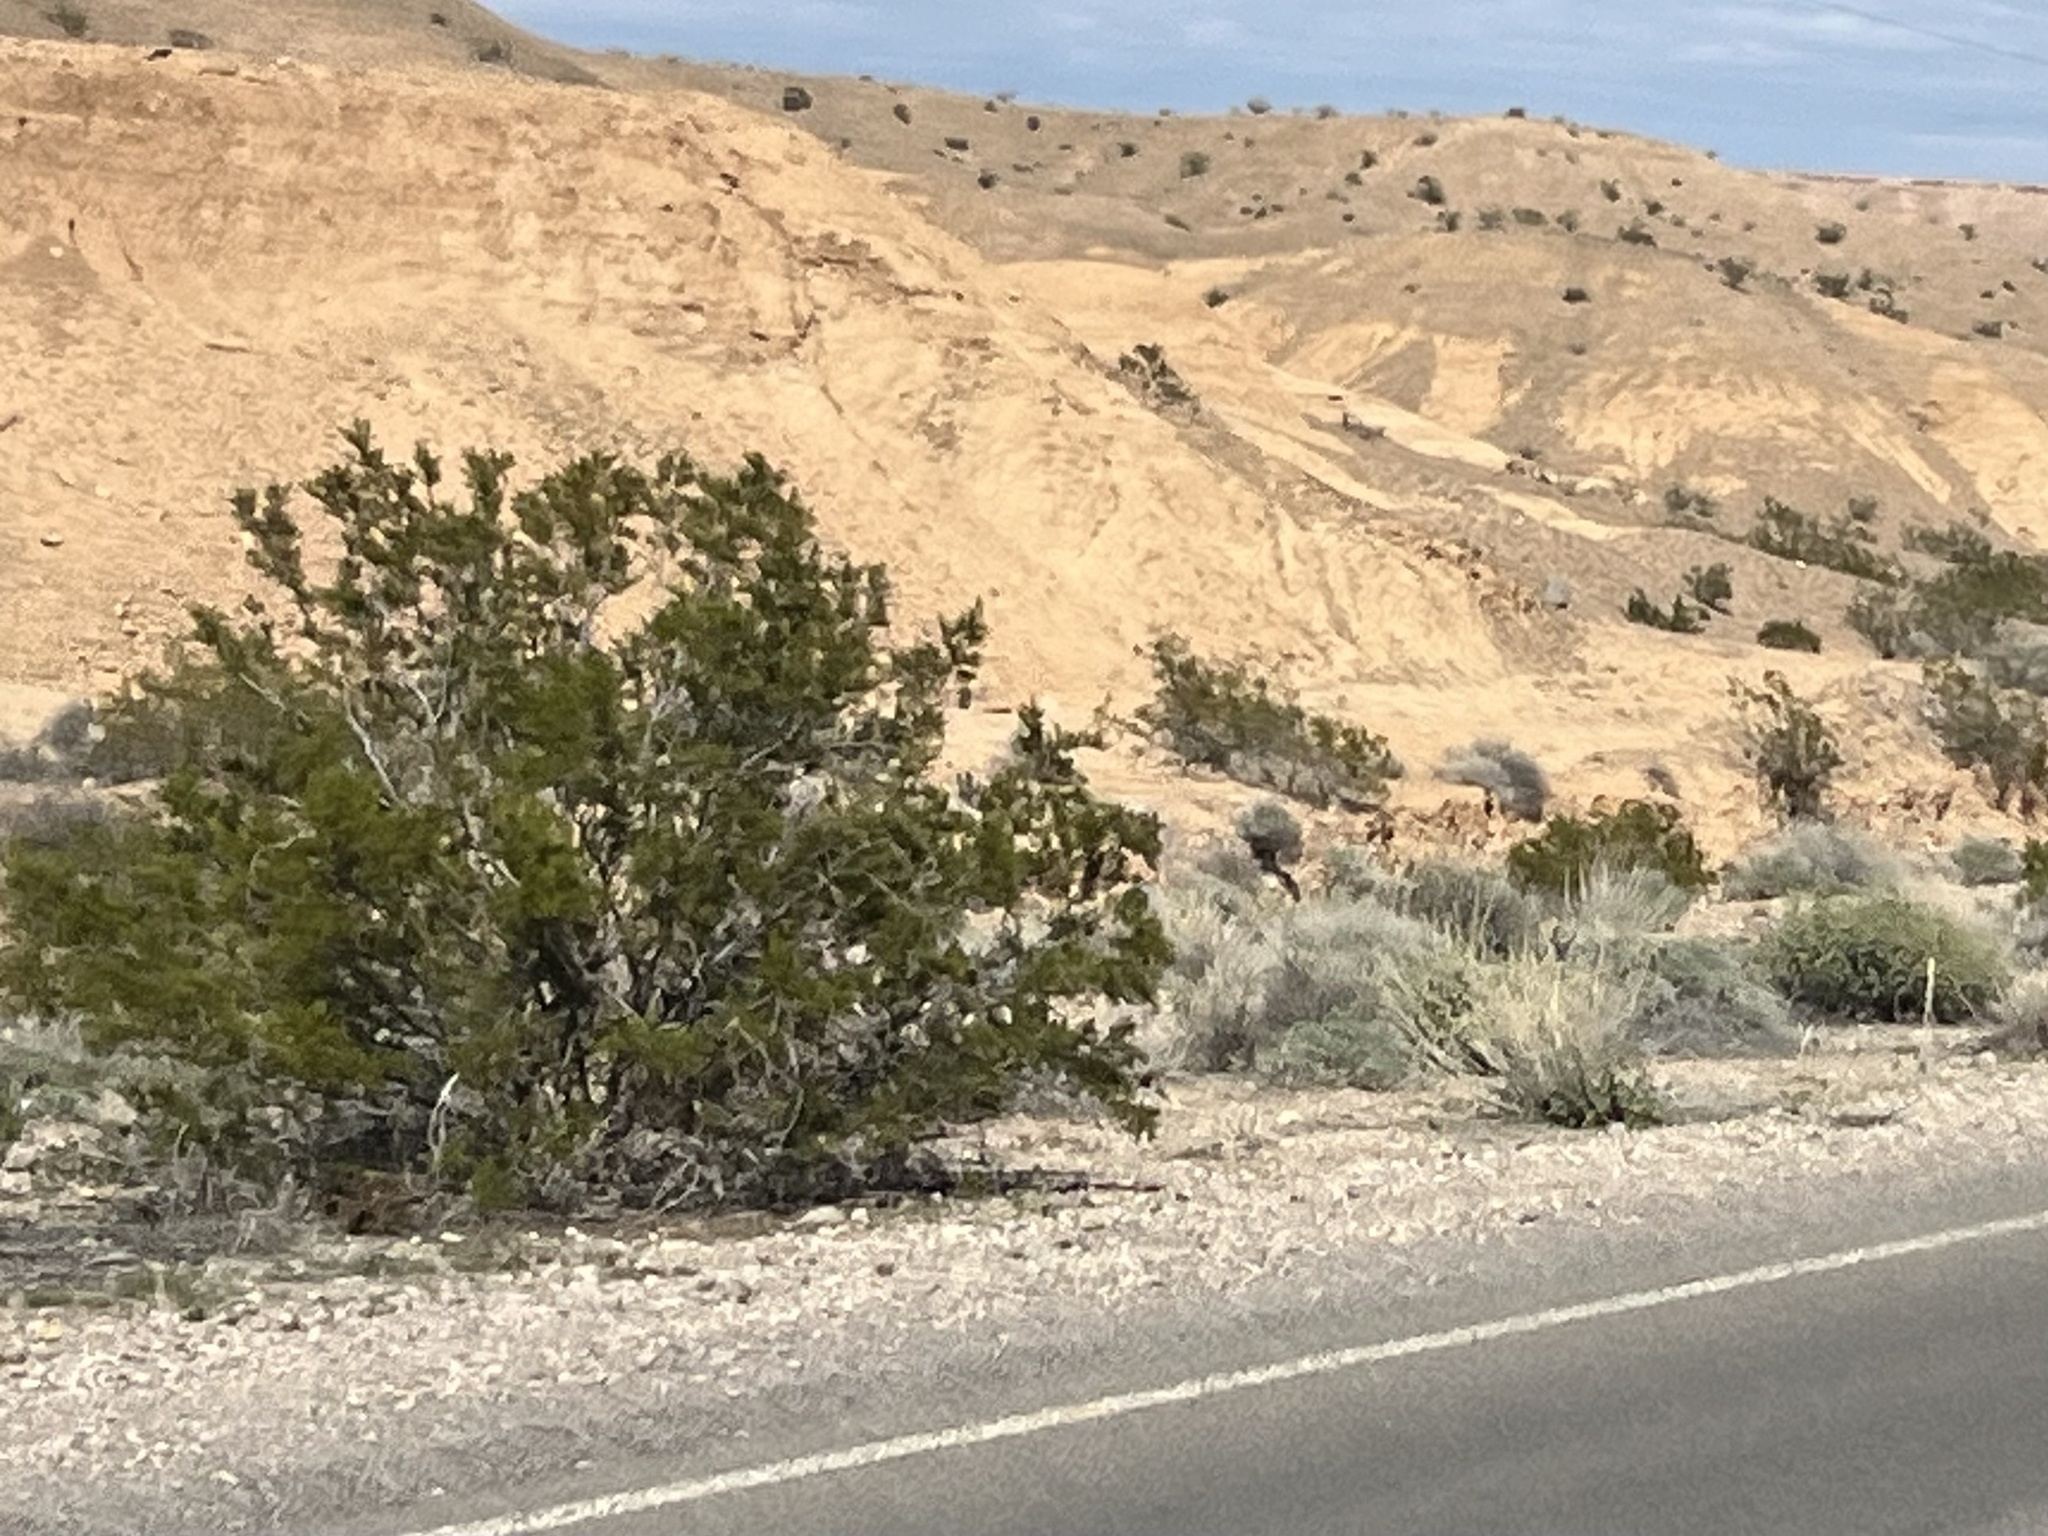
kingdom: Plantae
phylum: Tracheophyta
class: Magnoliopsida
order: Zygophyllales
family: Zygophyllaceae
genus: Larrea
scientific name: Larrea tridentata
